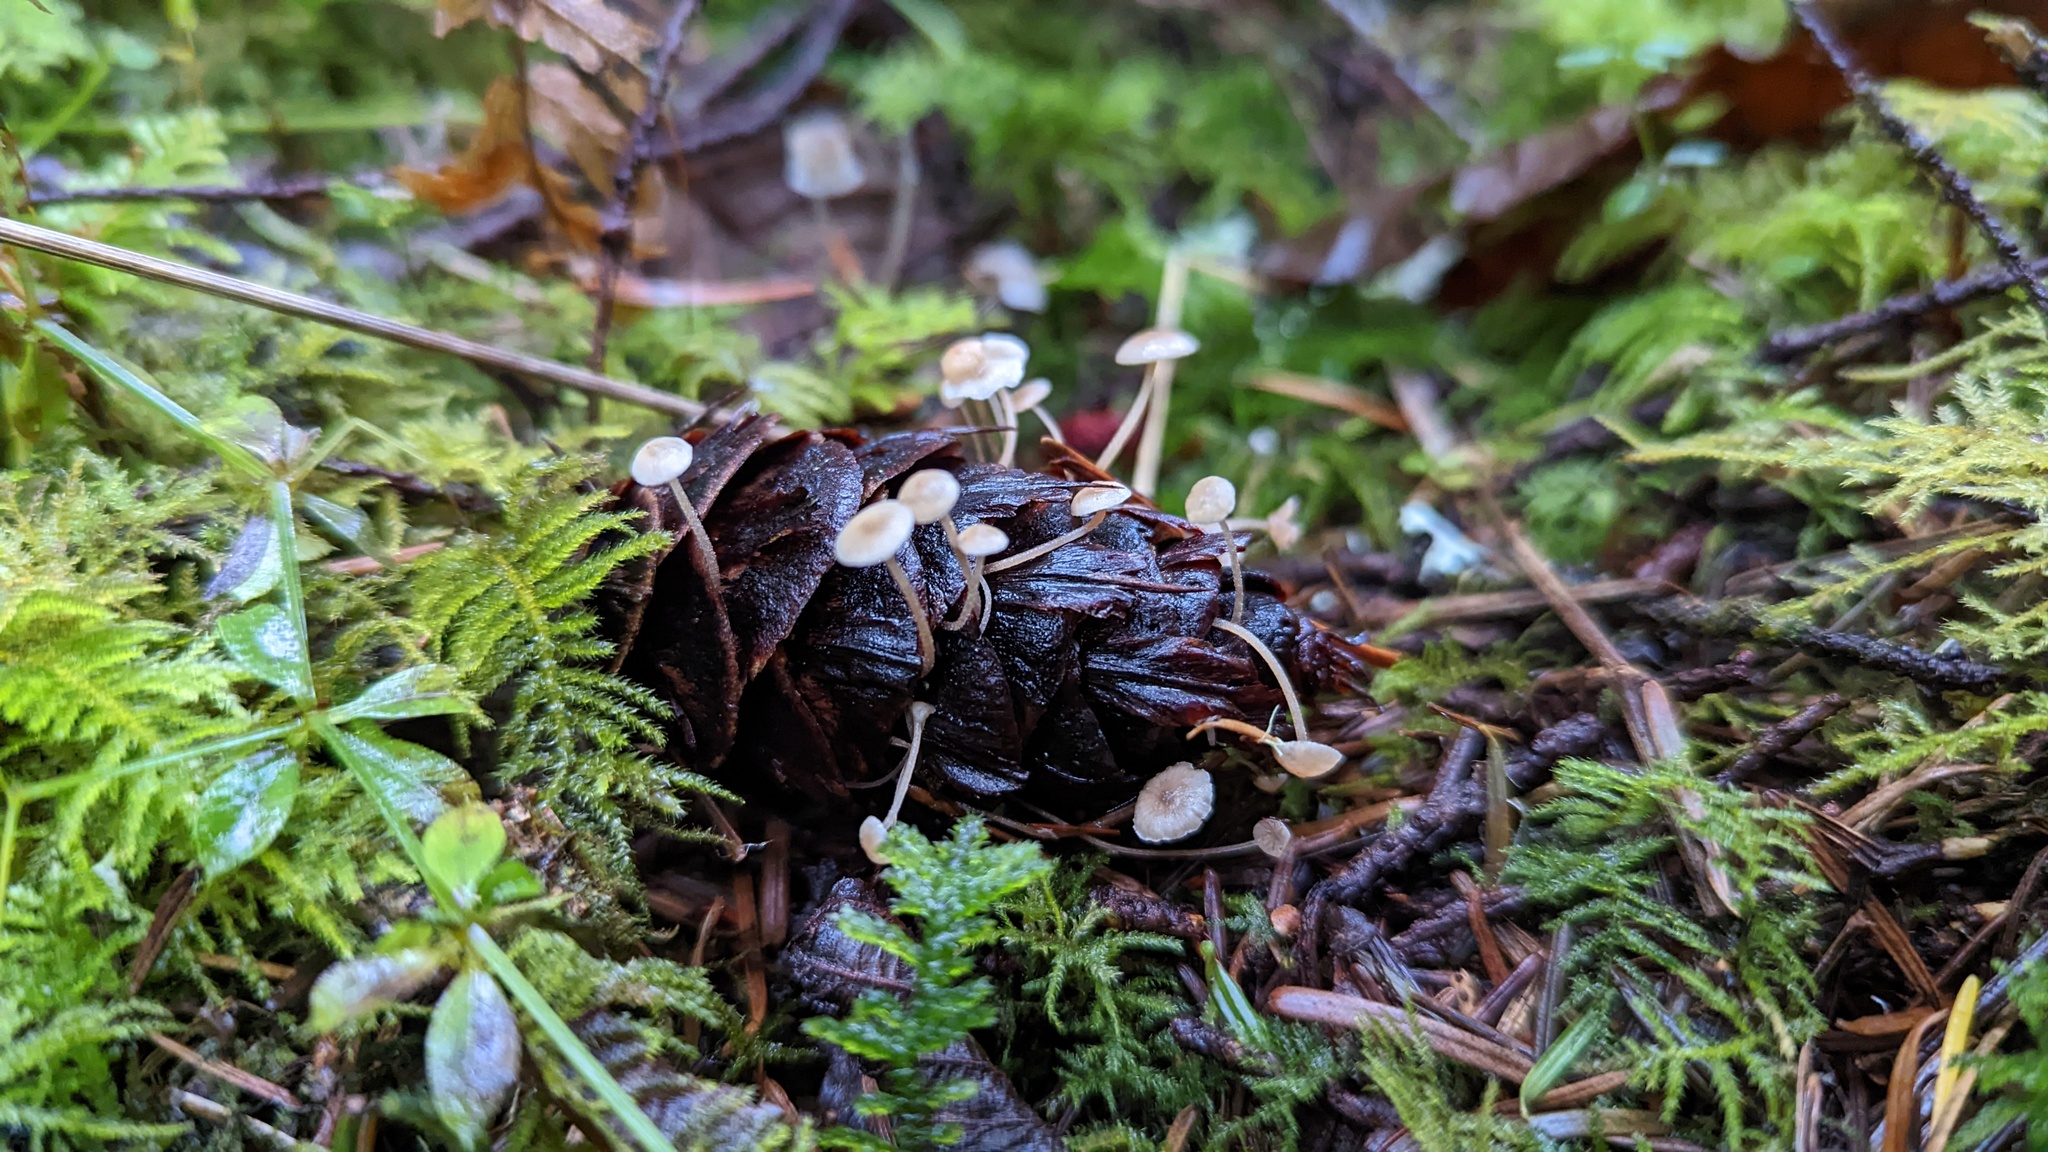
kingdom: Fungi
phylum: Basidiomycota
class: Agaricomycetes
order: Agaricales
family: Marasmiaceae
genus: Baeospora
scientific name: Baeospora myosura
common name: Conifercone cap
